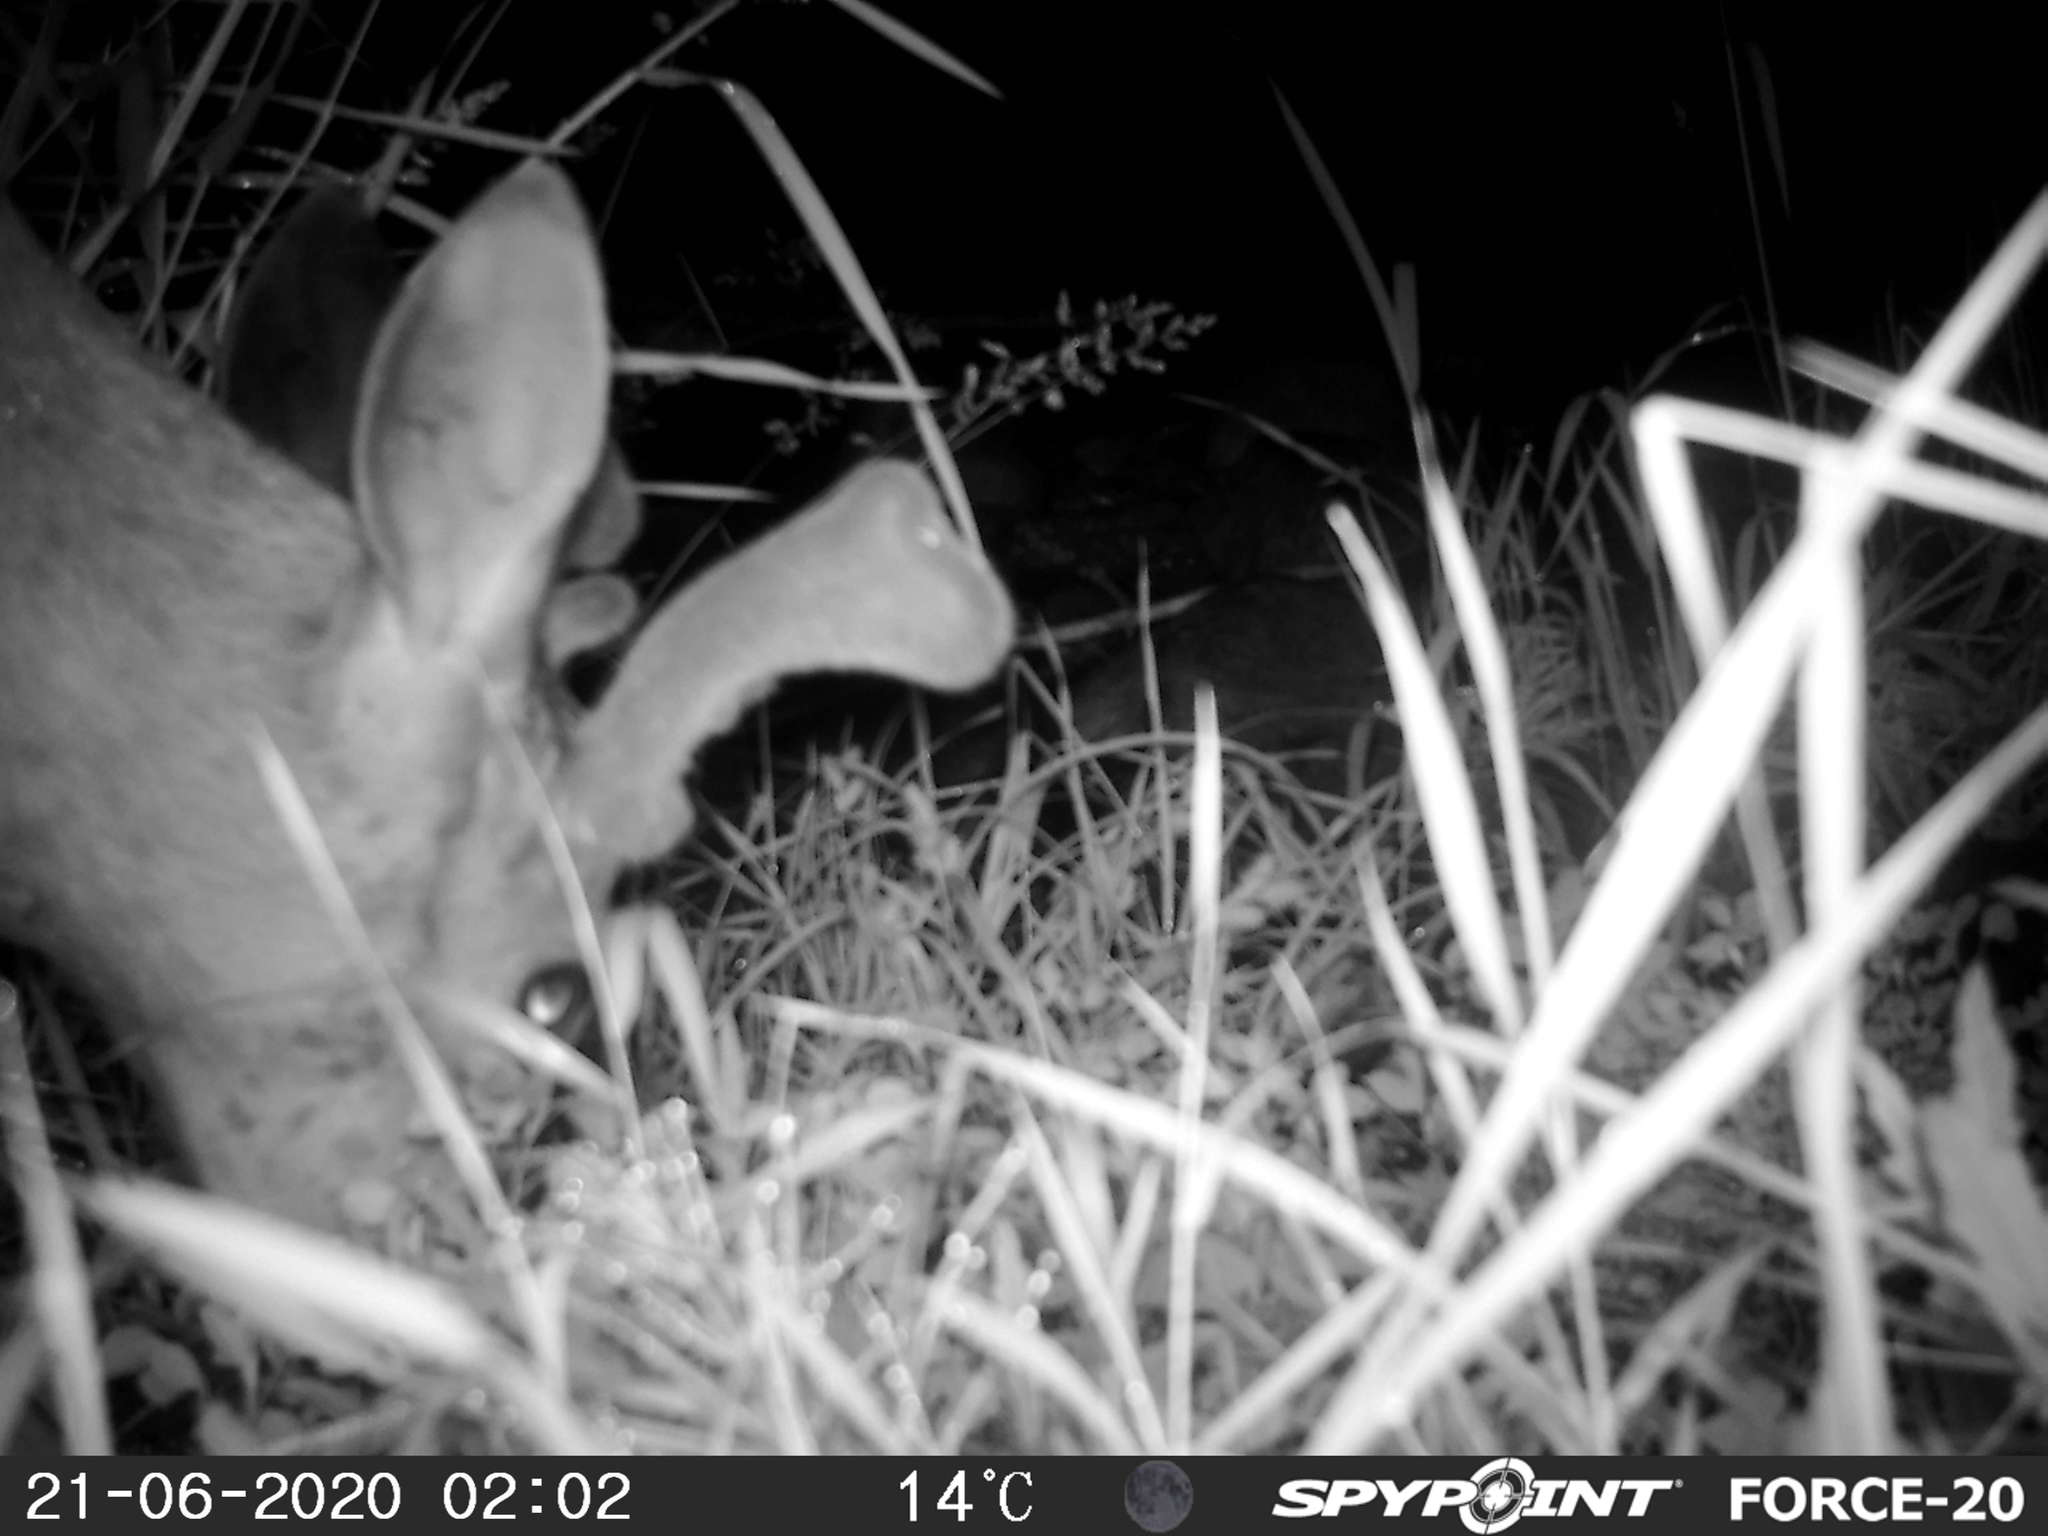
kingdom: Animalia
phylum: Chordata
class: Mammalia
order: Artiodactyla
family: Cervidae
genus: Odocoileus
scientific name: Odocoileus virginianus
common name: White-tailed deer
